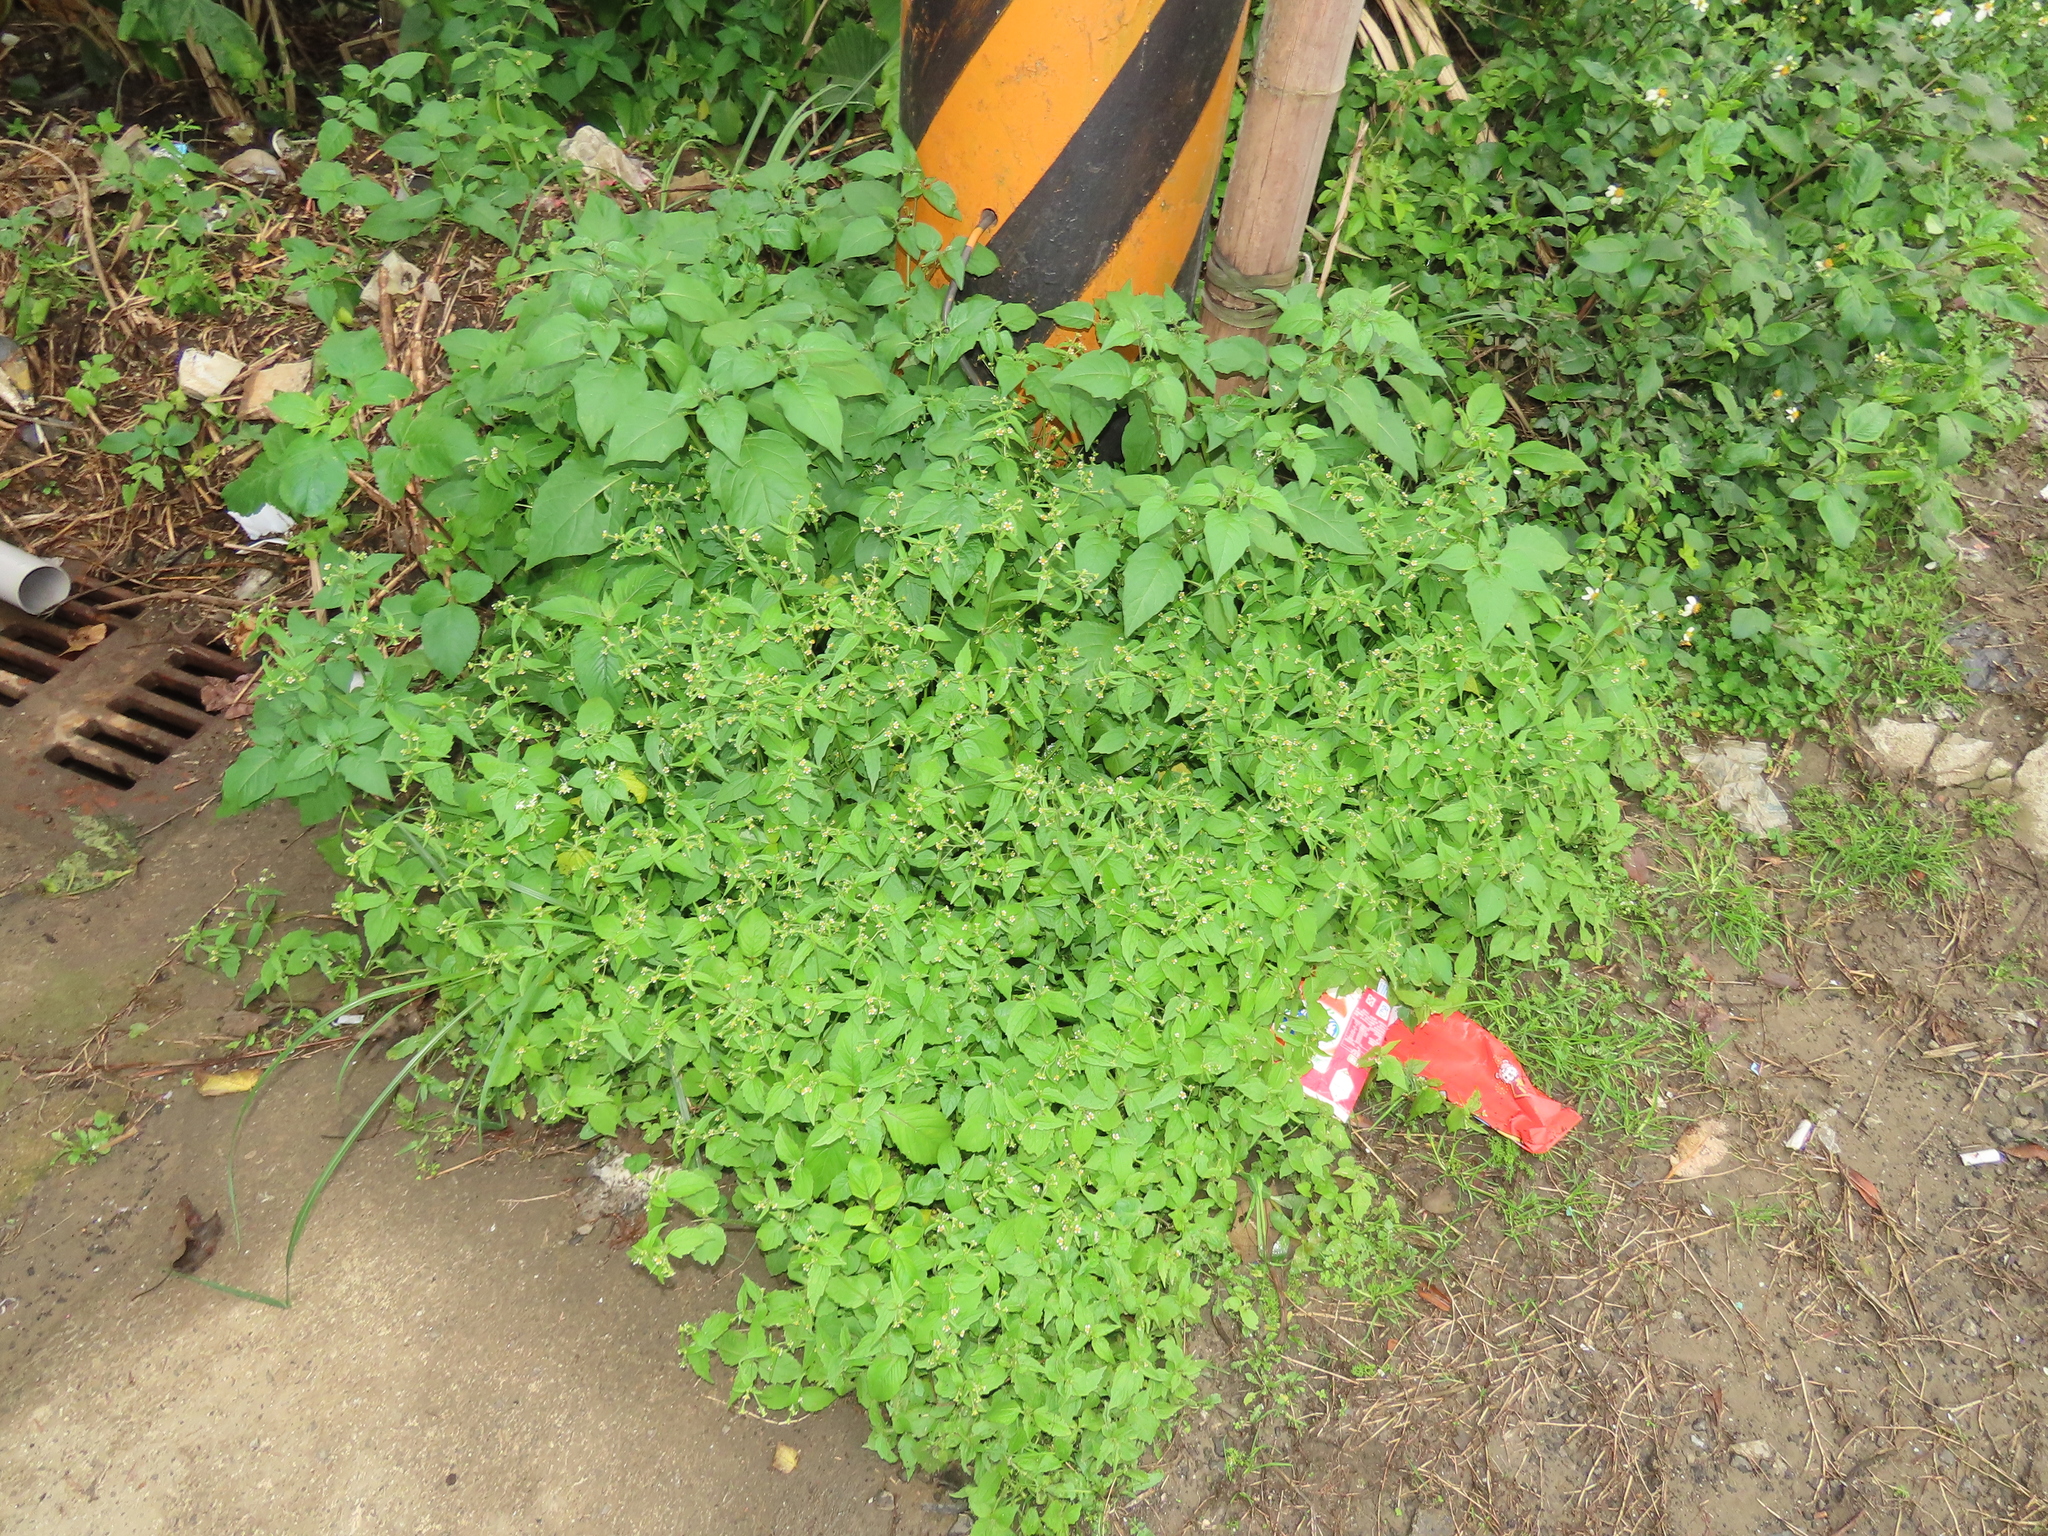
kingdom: Plantae
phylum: Tracheophyta
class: Magnoliopsida
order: Asterales
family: Asteraceae
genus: Galinsoga
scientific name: Galinsoga quadriradiata
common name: Shaggy soldier
